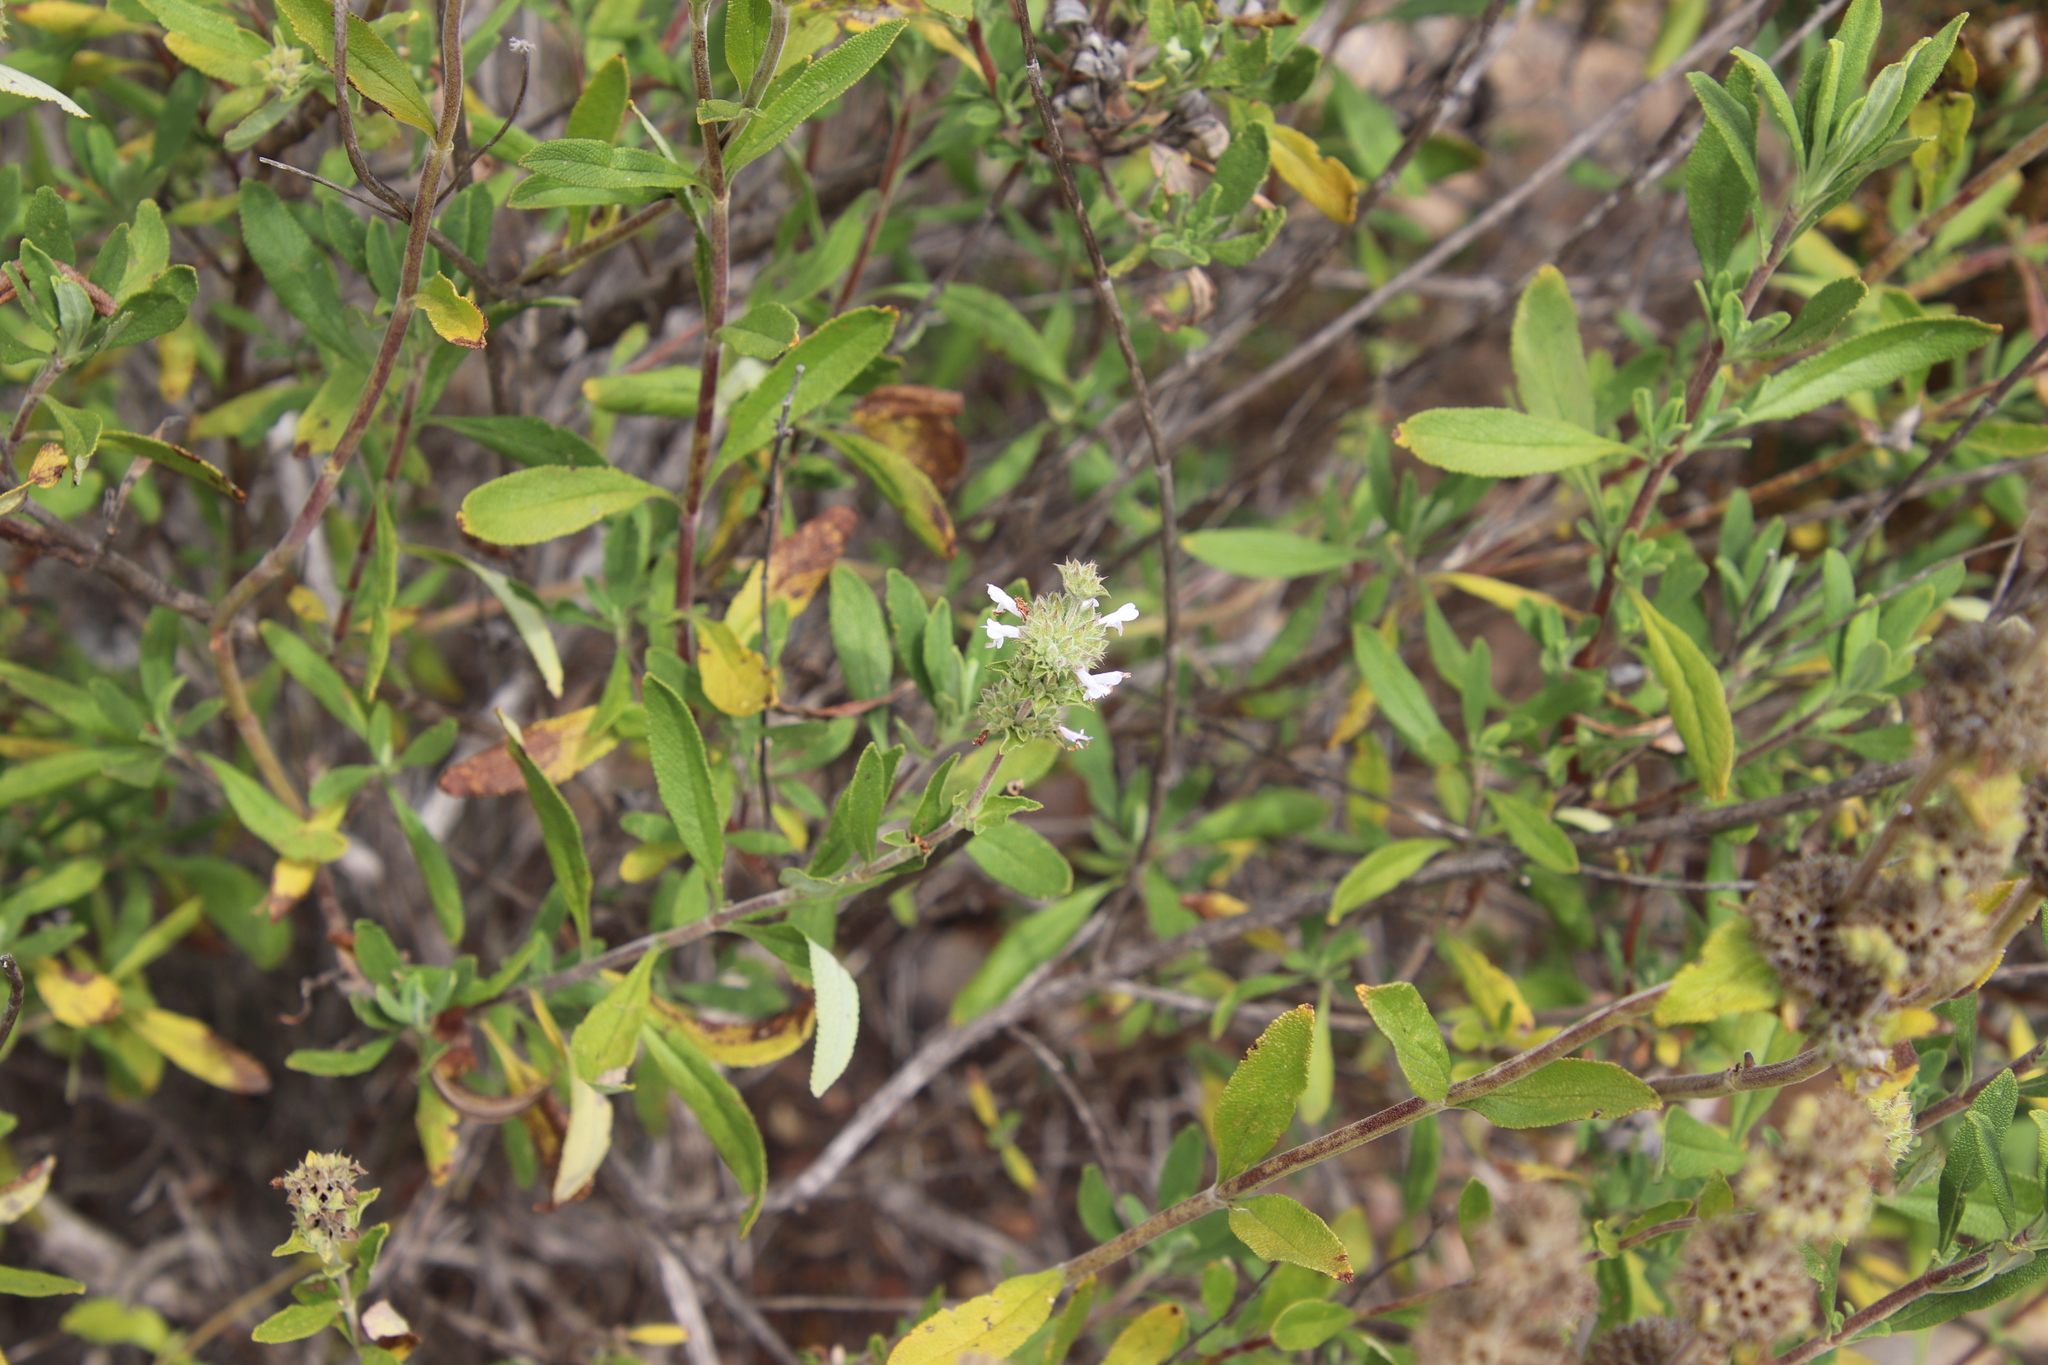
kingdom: Plantae
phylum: Tracheophyta
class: Magnoliopsida
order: Lamiales
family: Lamiaceae
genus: Salvia
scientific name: Salvia mellifera
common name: Black sage
